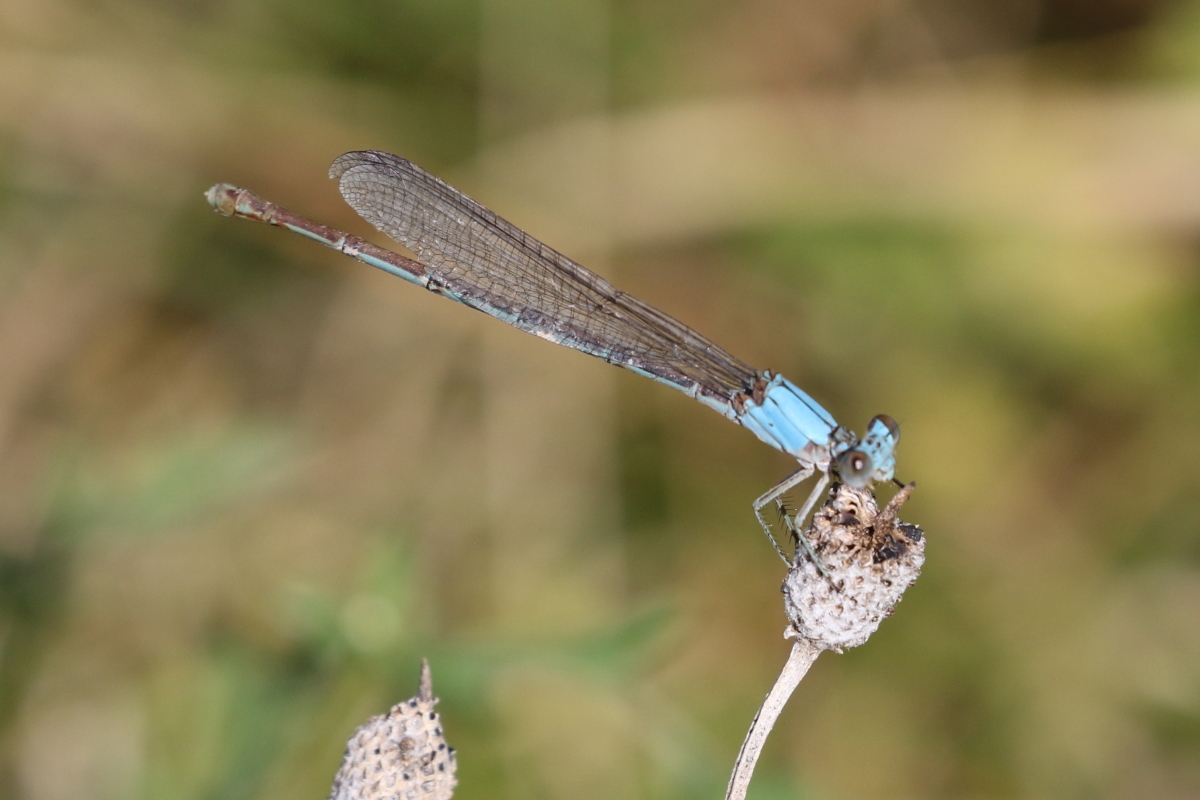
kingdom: Animalia
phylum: Arthropoda
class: Insecta
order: Odonata
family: Coenagrionidae
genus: Argia
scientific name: Argia moesta
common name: Powdered dancer
